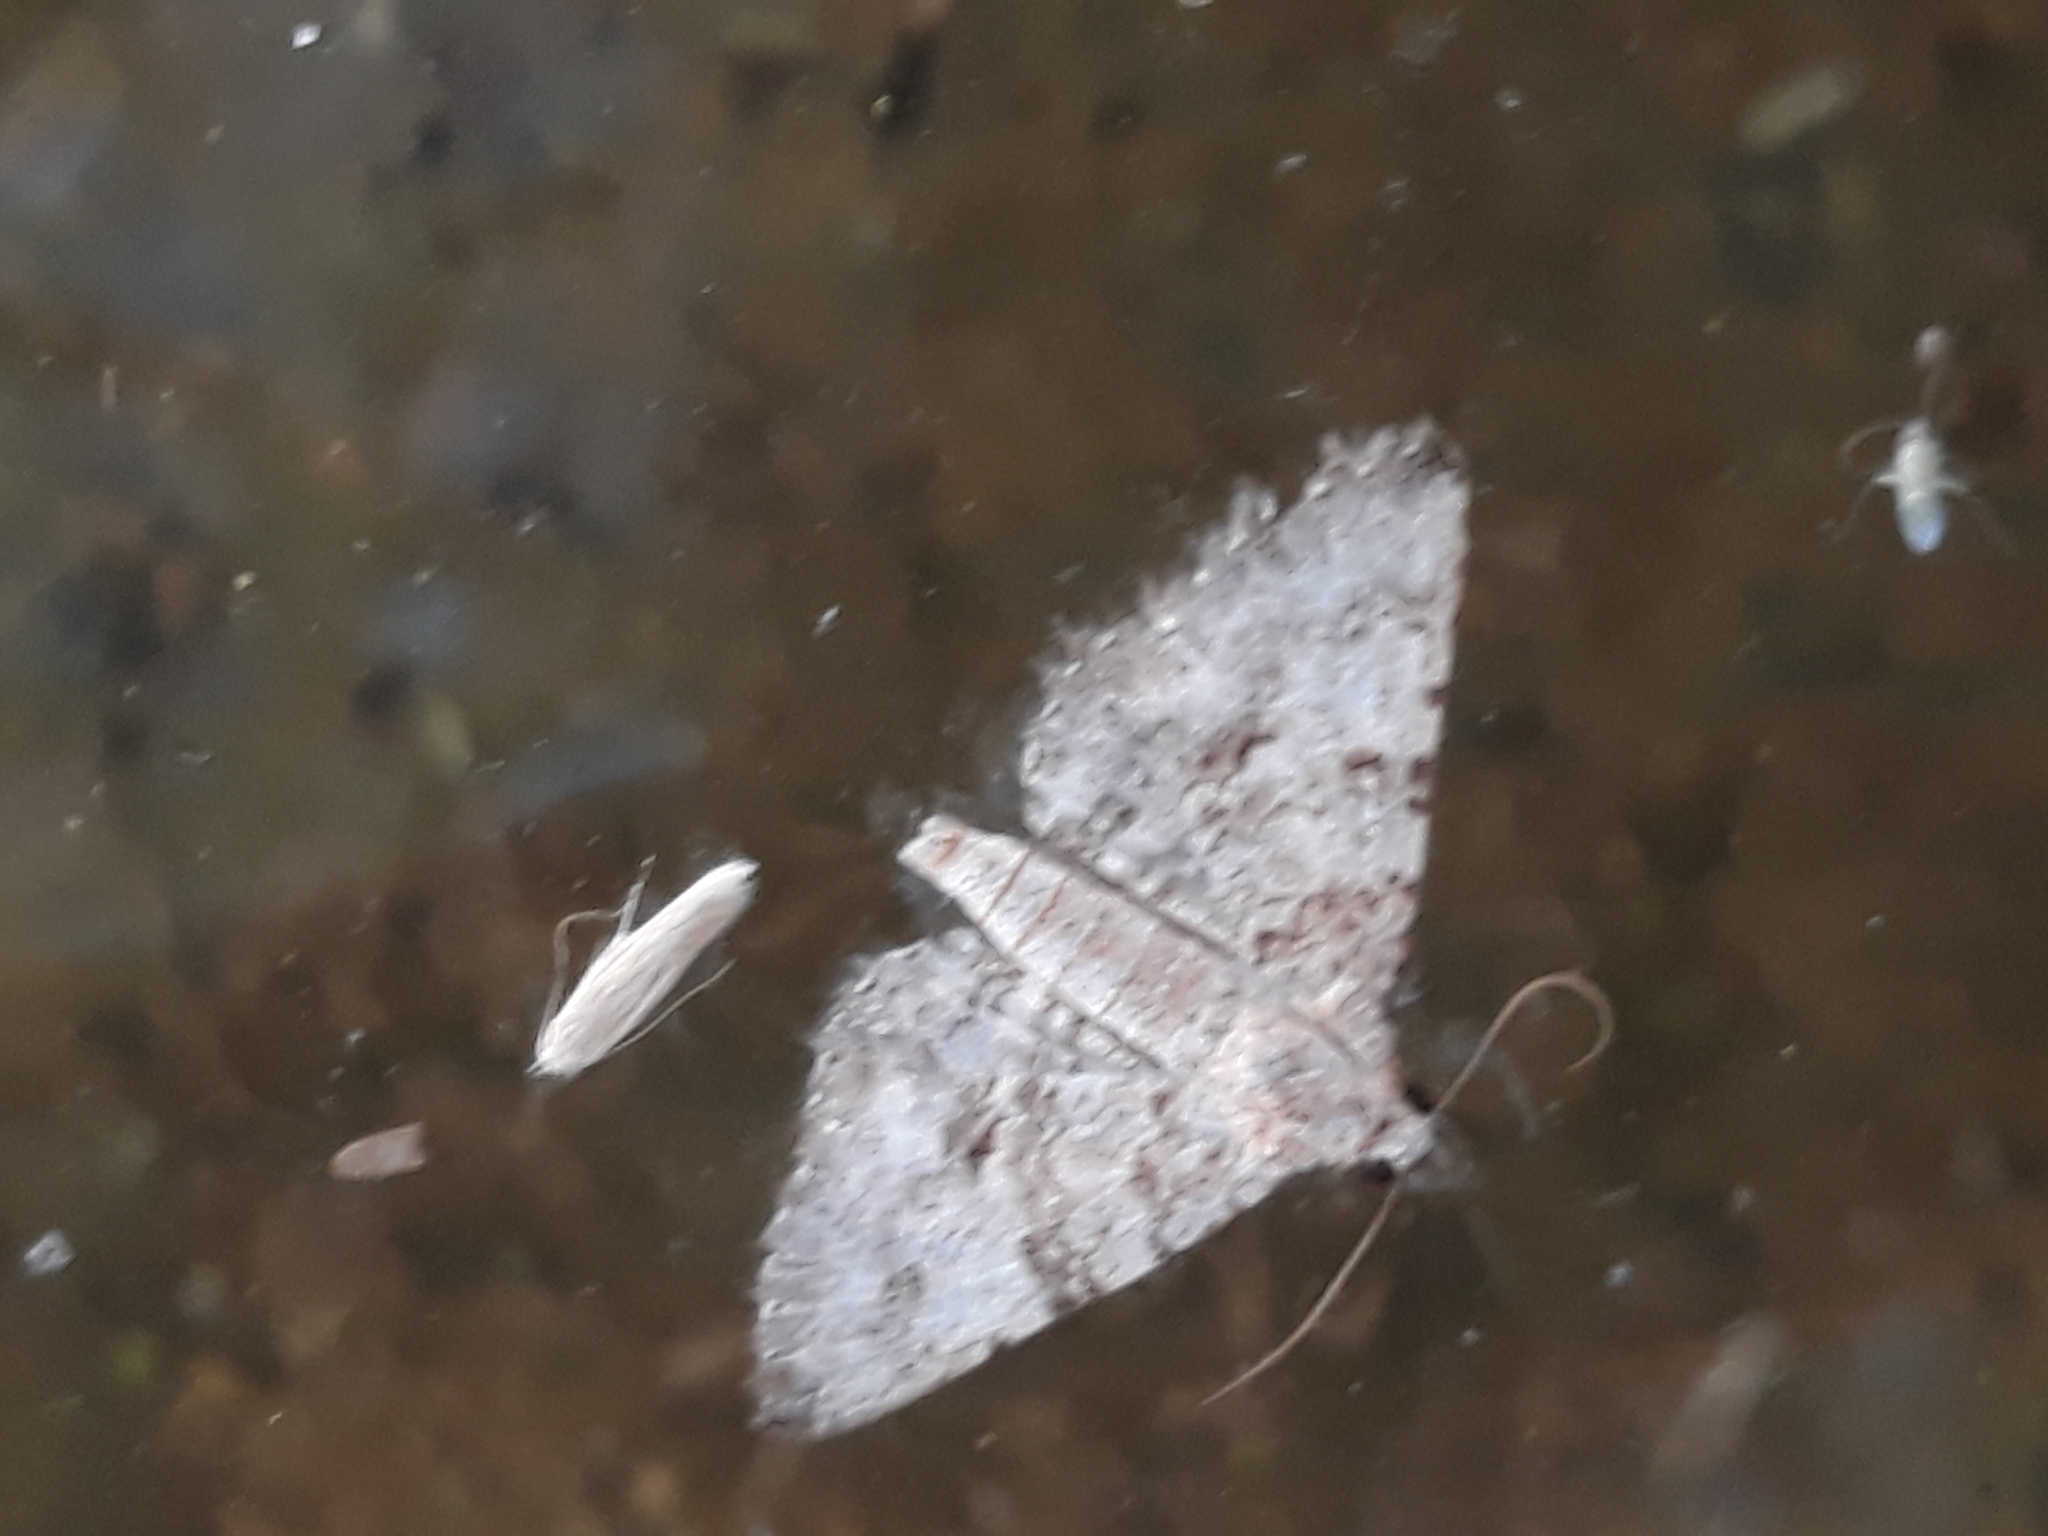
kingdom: Animalia
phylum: Arthropoda
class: Insecta
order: Lepidoptera
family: Erebidae
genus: Homaea
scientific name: Homaea
